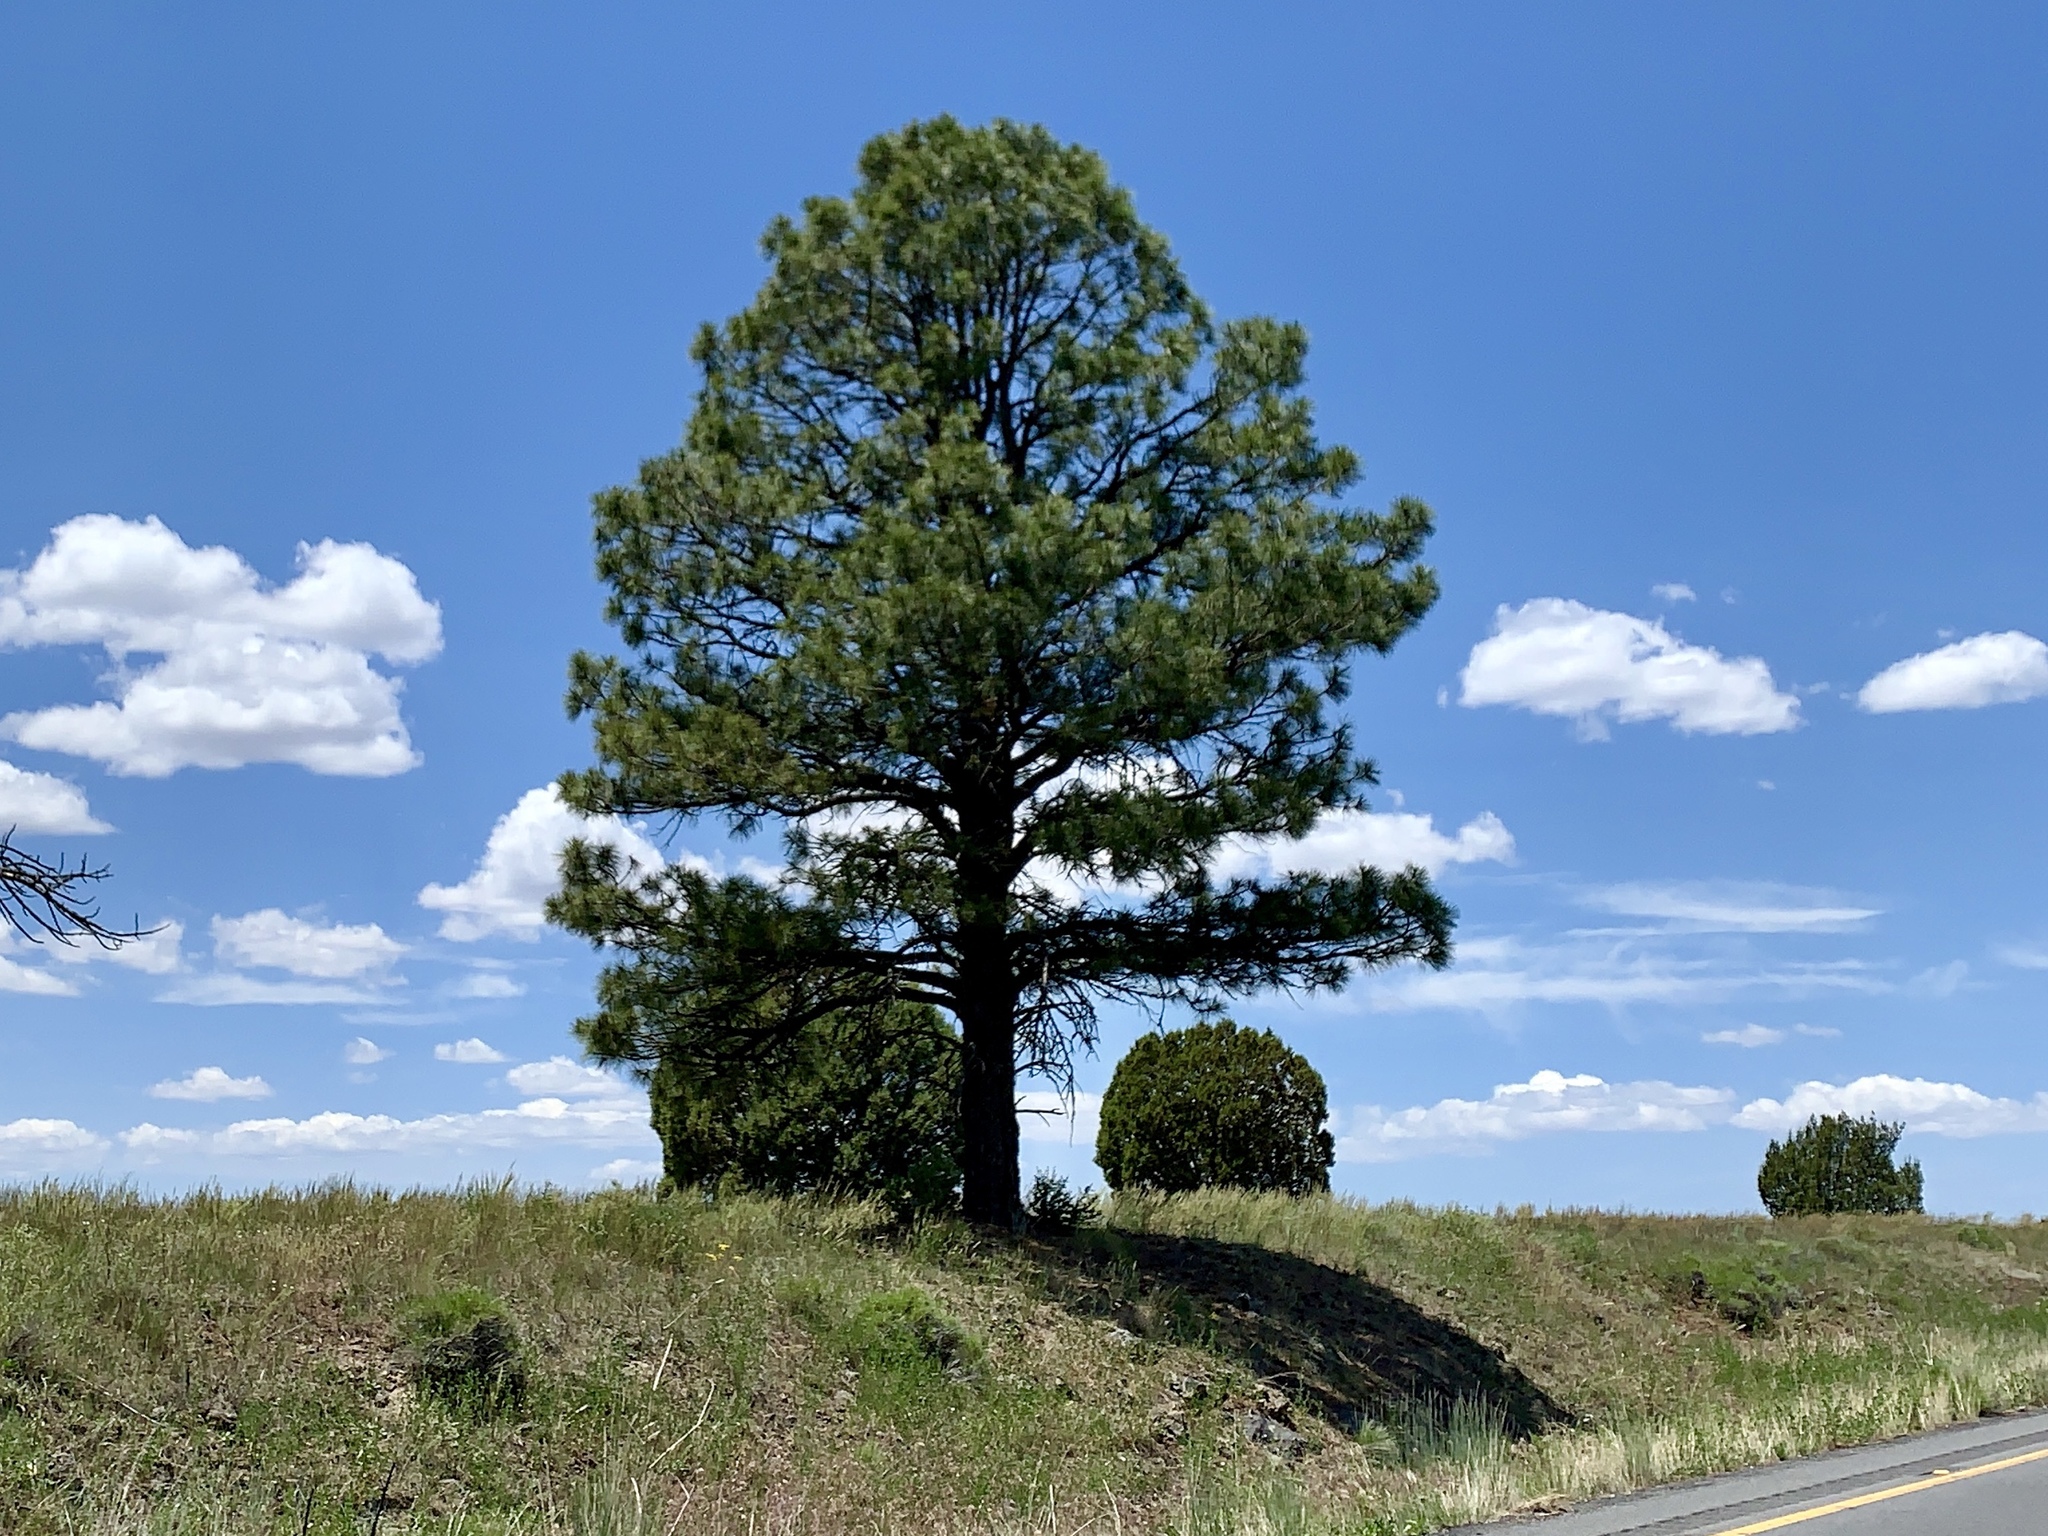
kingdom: Plantae
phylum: Tracheophyta
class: Pinopsida
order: Pinales
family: Pinaceae
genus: Pinus
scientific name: Pinus ponderosa
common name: Western yellow-pine
